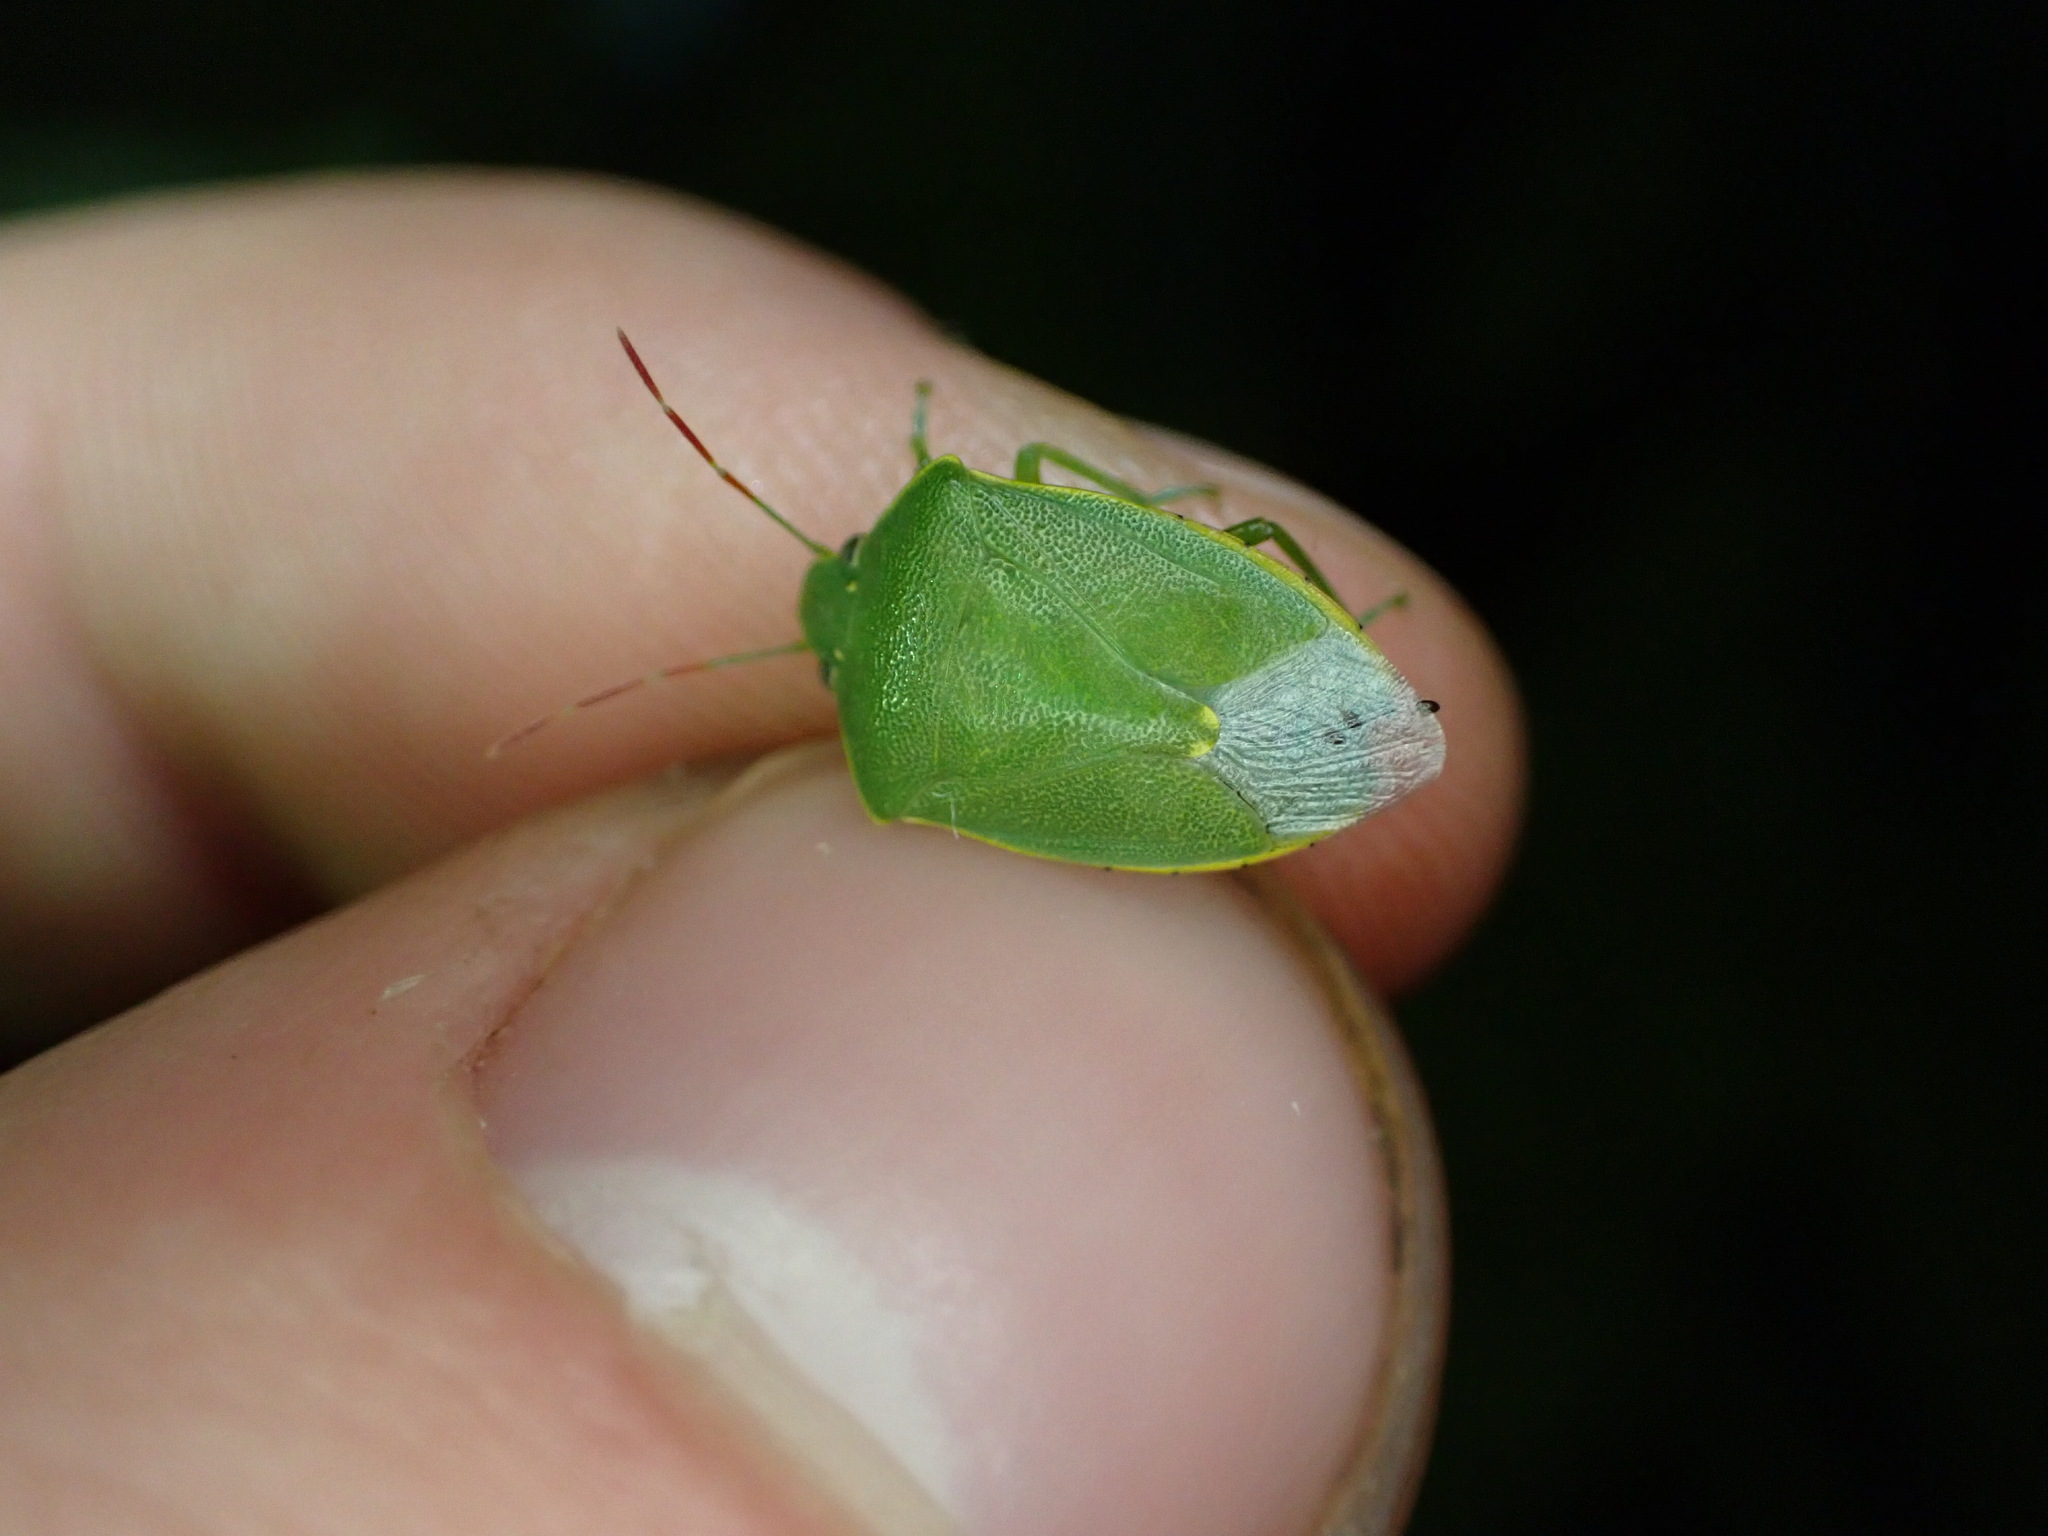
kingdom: Animalia
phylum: Arthropoda
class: Insecta
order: Hemiptera
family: Pentatomidae
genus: Acrosternum
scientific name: Acrosternum heegeri
